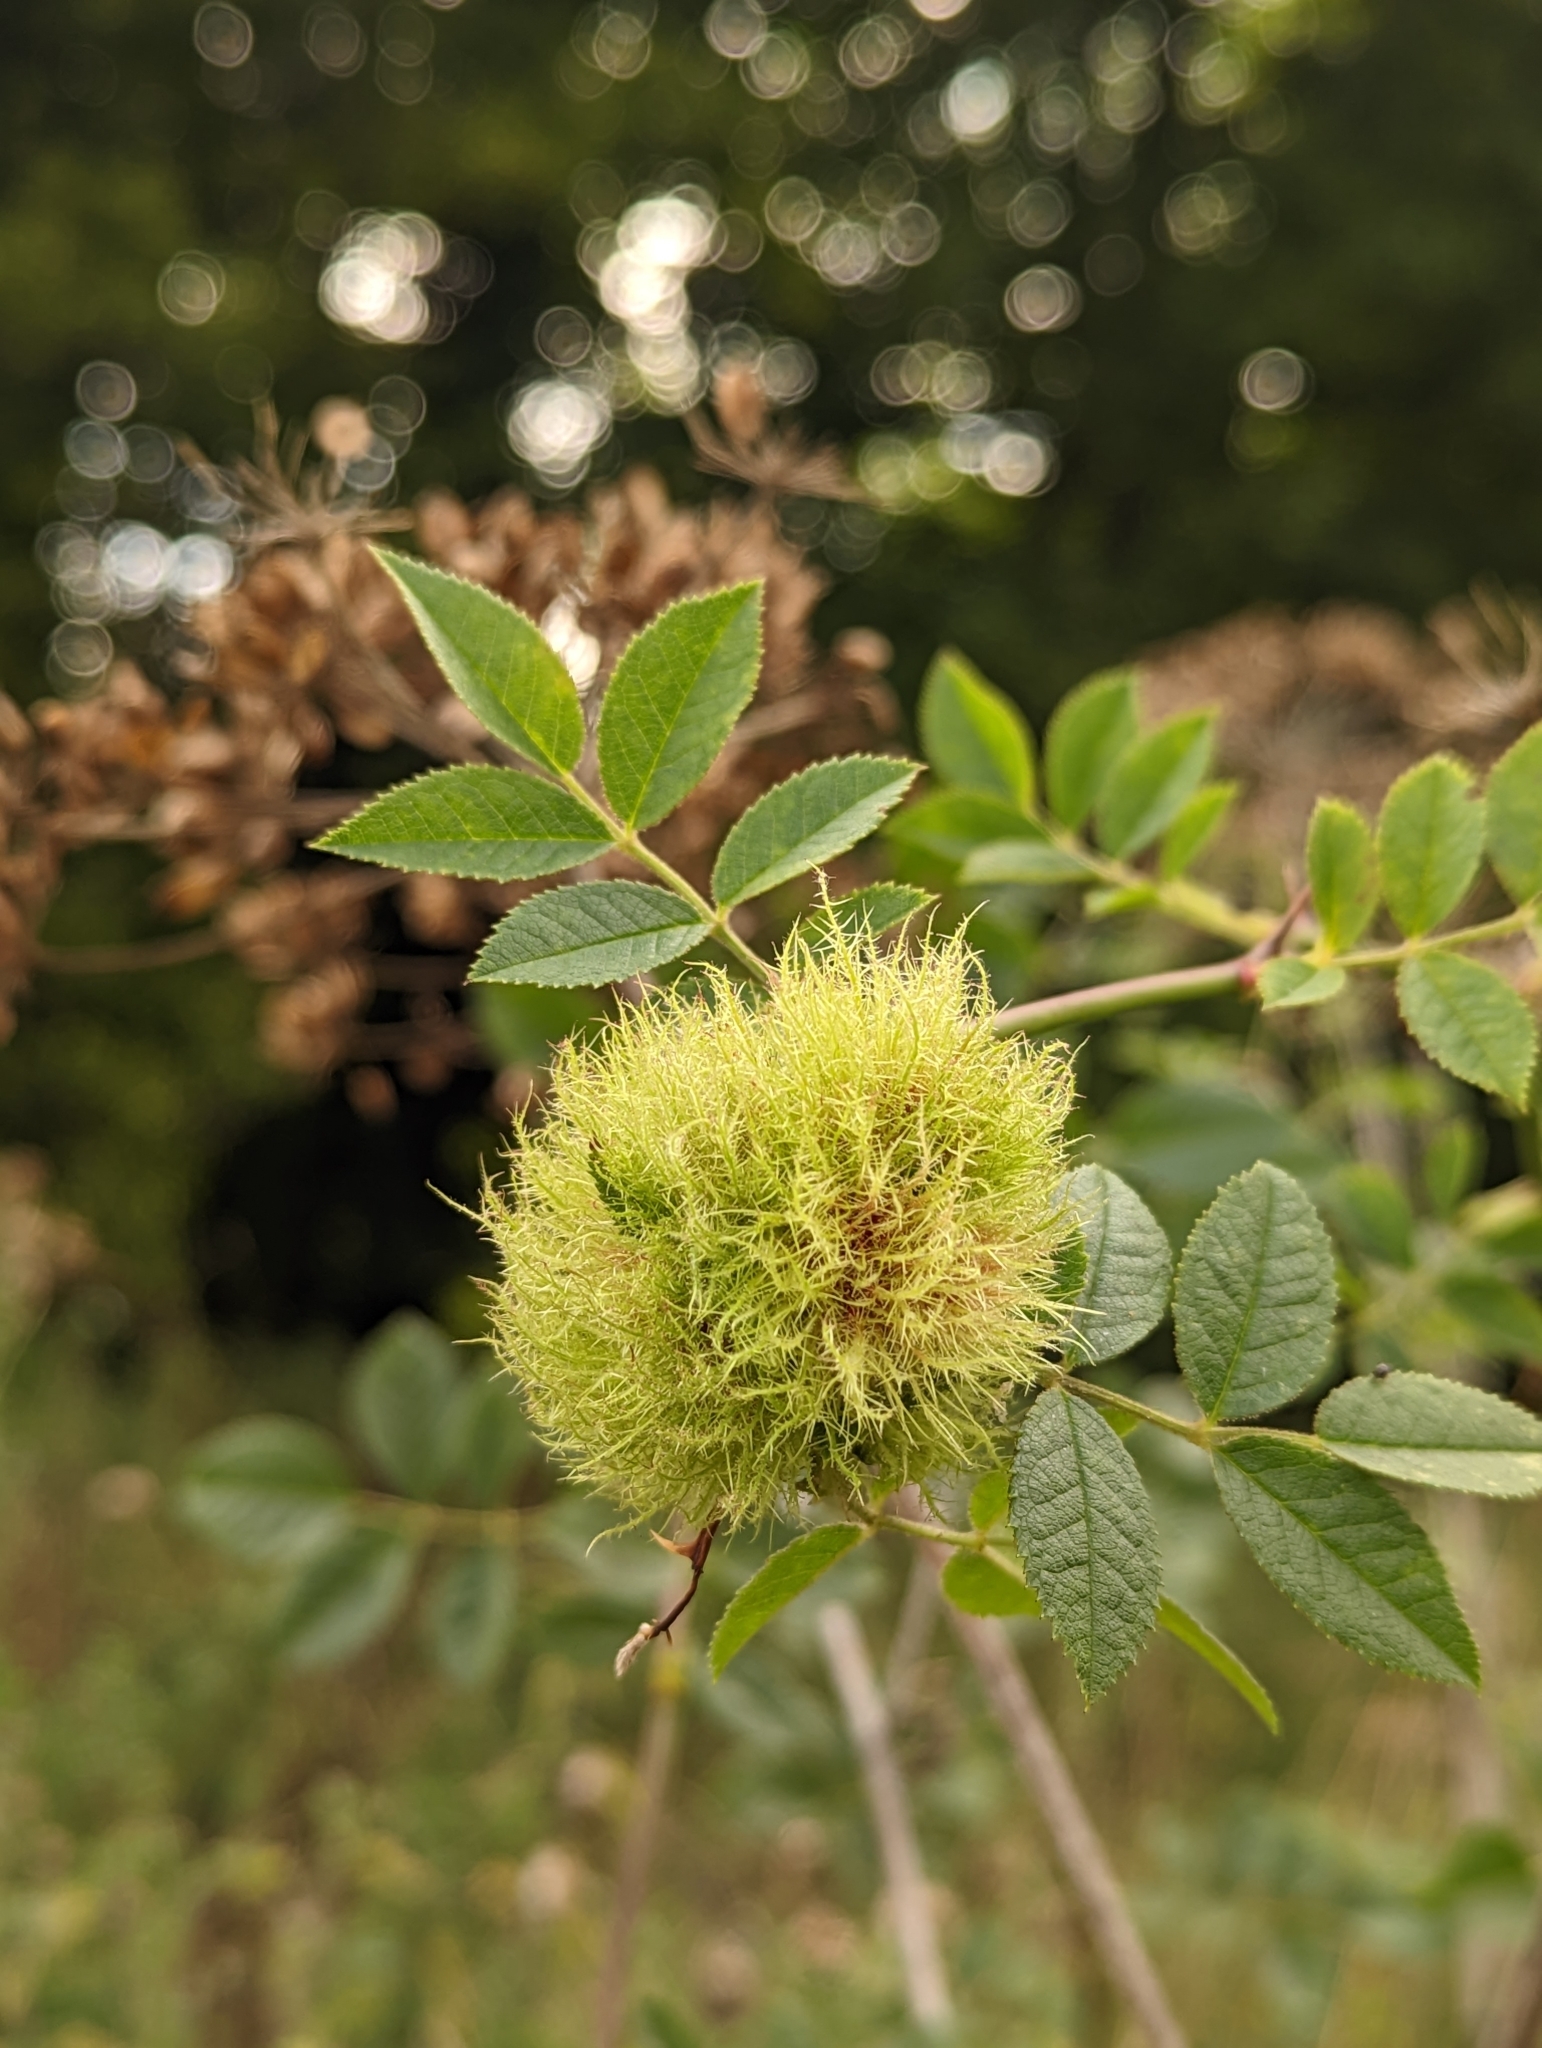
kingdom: Animalia
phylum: Arthropoda
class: Insecta
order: Hymenoptera
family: Cynipidae
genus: Diplolepis
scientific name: Diplolepis rosae
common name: Bedeguar gall
